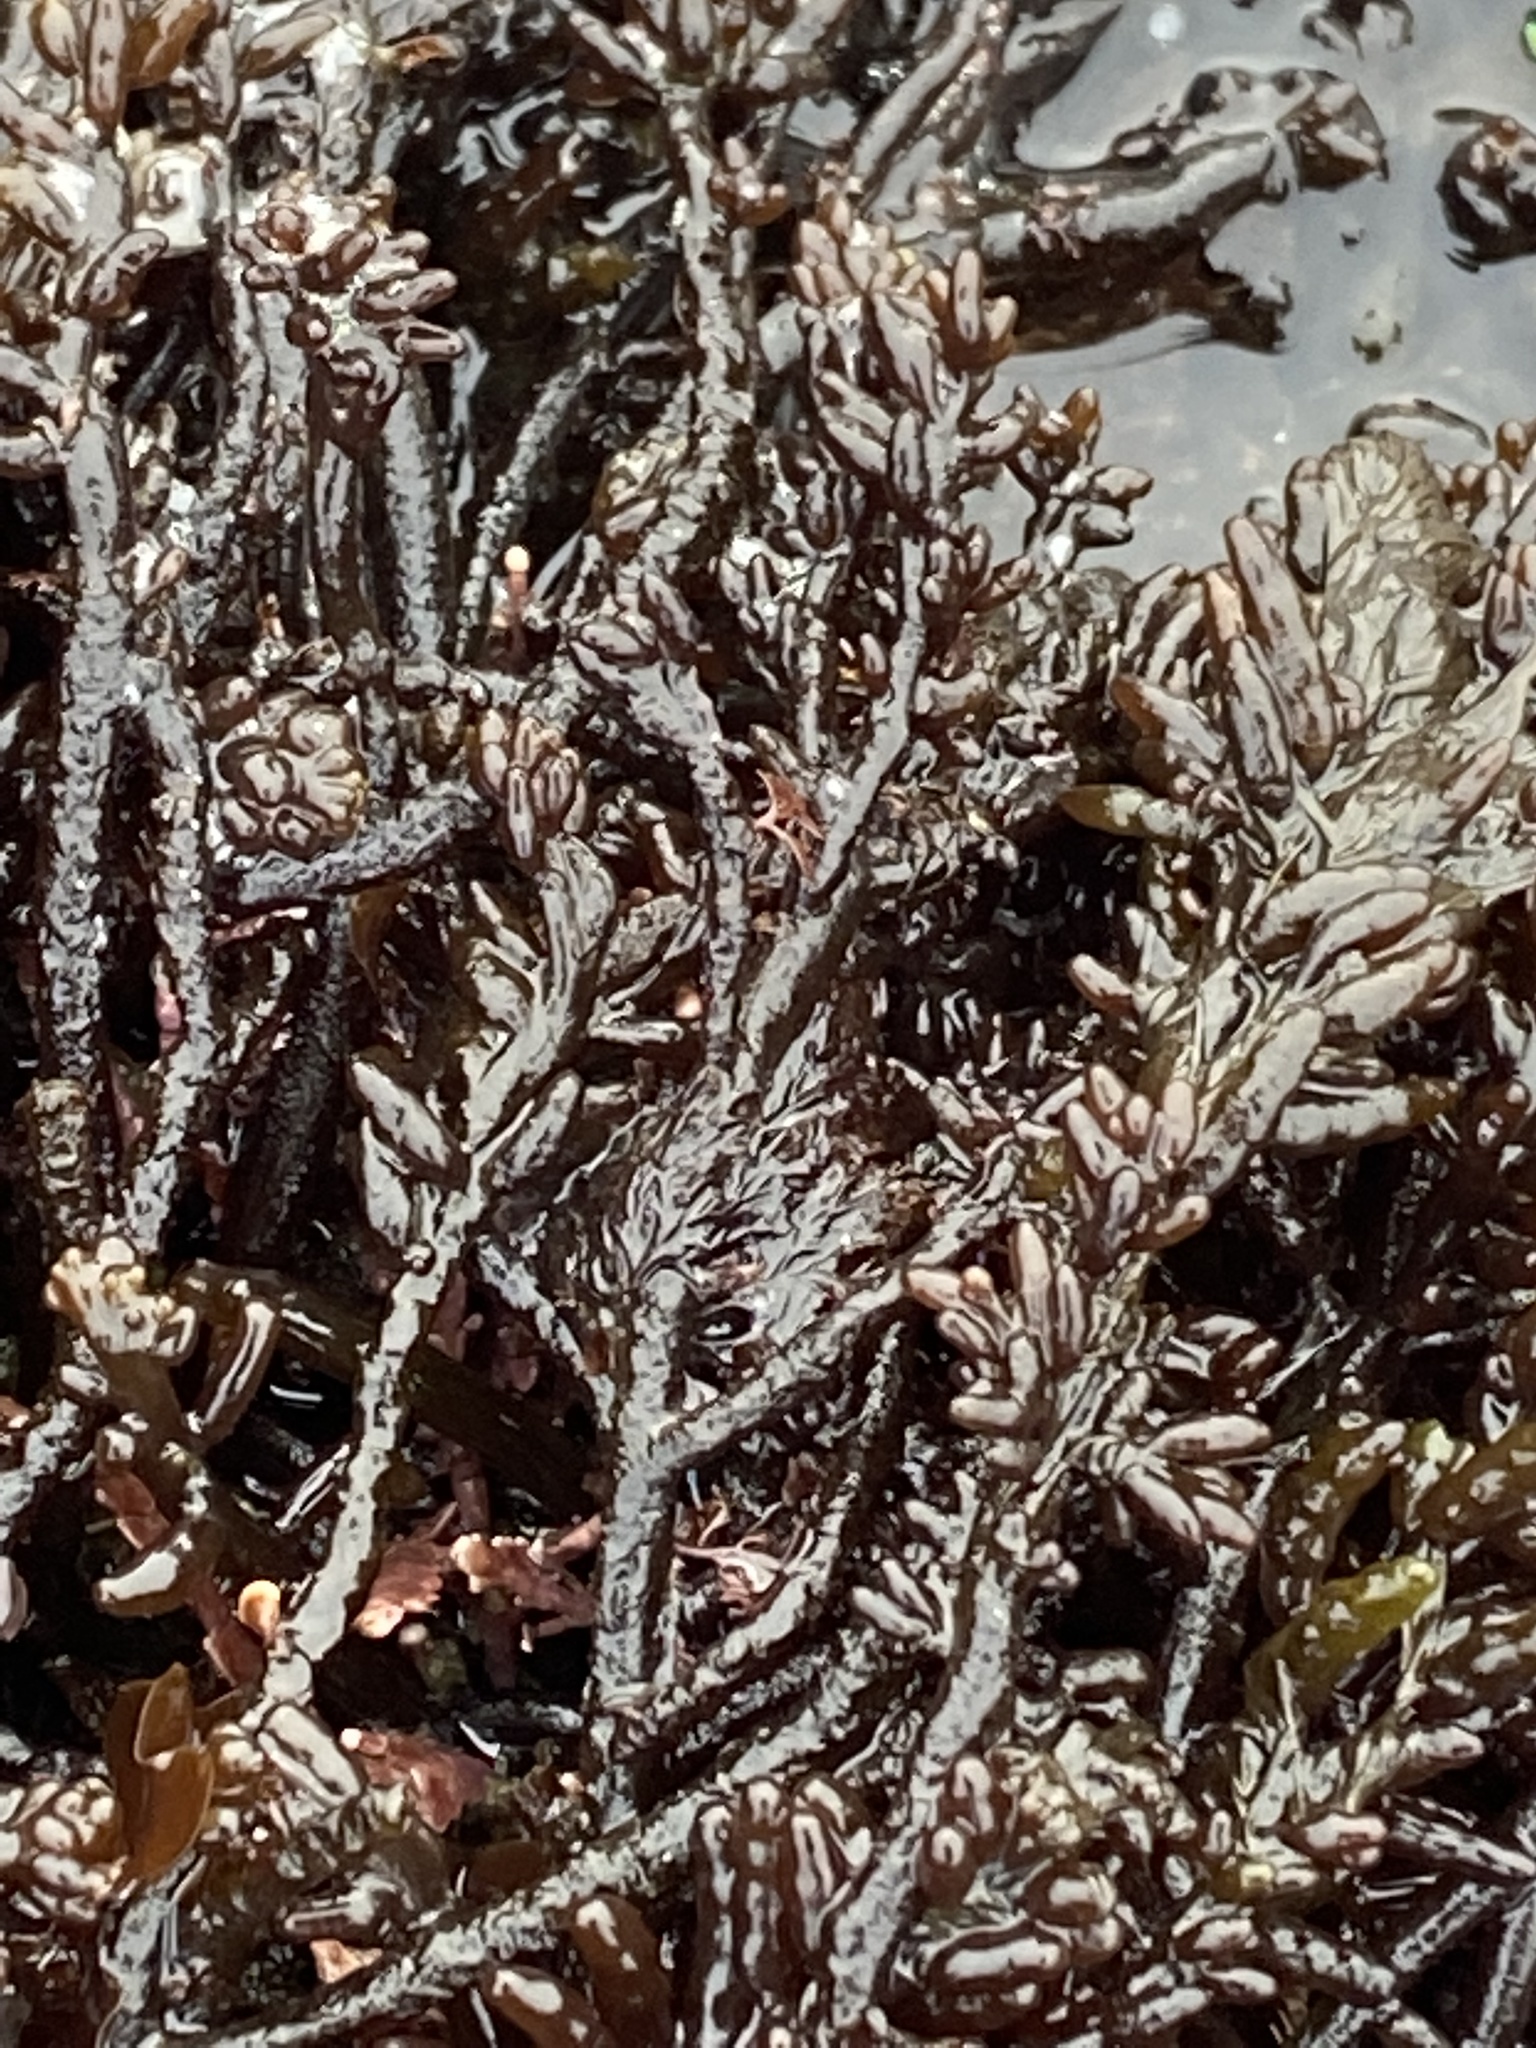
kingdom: Plantae
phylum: Rhodophyta
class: Florideophyceae
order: Rhodymeniales
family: Champiaceae
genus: Neogastroclonium
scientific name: Neogastroclonium subarticulatum
